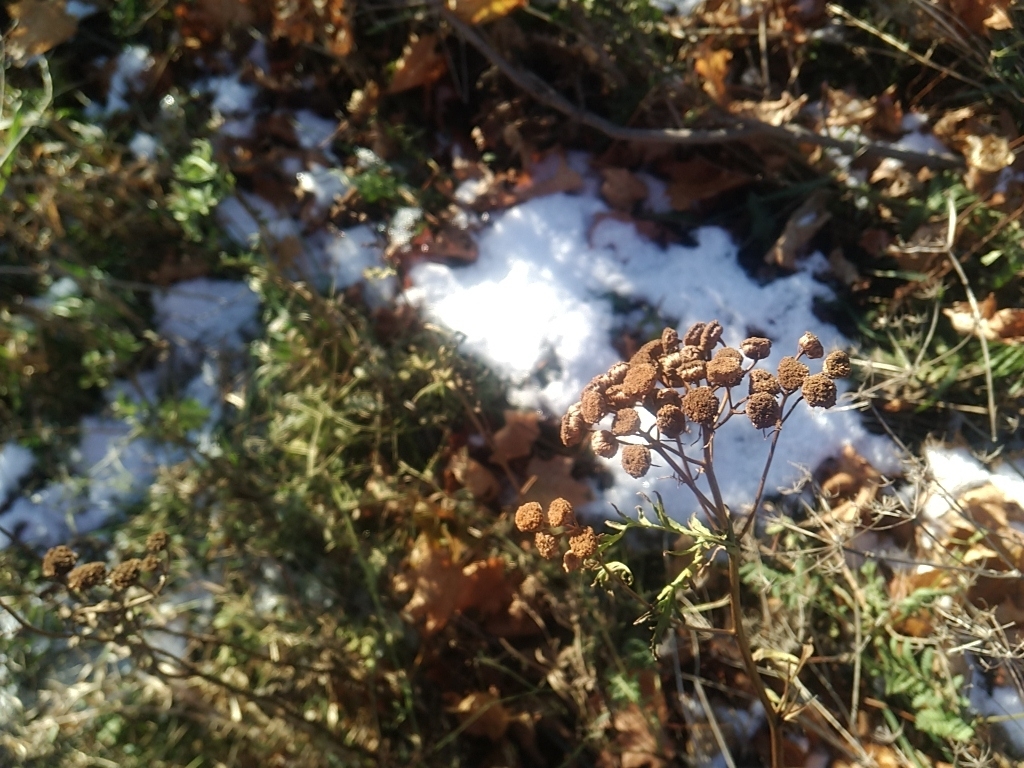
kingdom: Plantae
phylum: Tracheophyta
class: Magnoliopsida
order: Asterales
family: Asteraceae
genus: Tanacetum
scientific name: Tanacetum vulgare
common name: Common tansy
